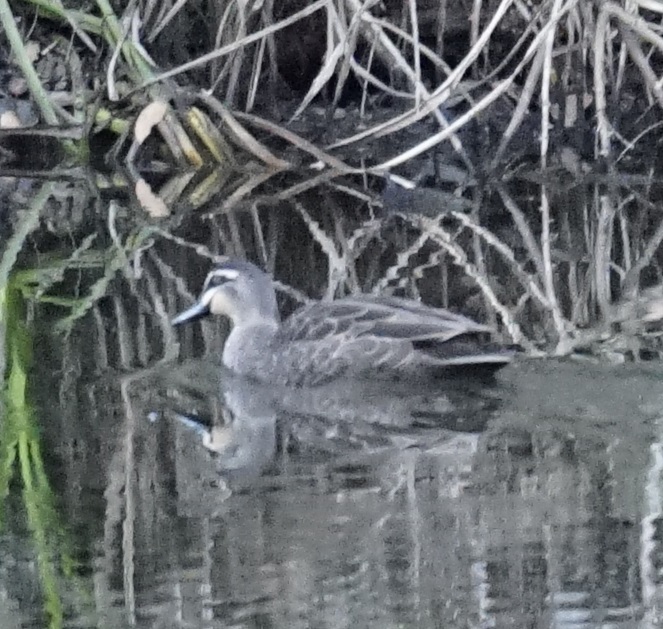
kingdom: Animalia
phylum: Chordata
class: Aves
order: Anseriformes
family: Anatidae
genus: Anas
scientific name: Anas superciliosa
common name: Pacific black duck
